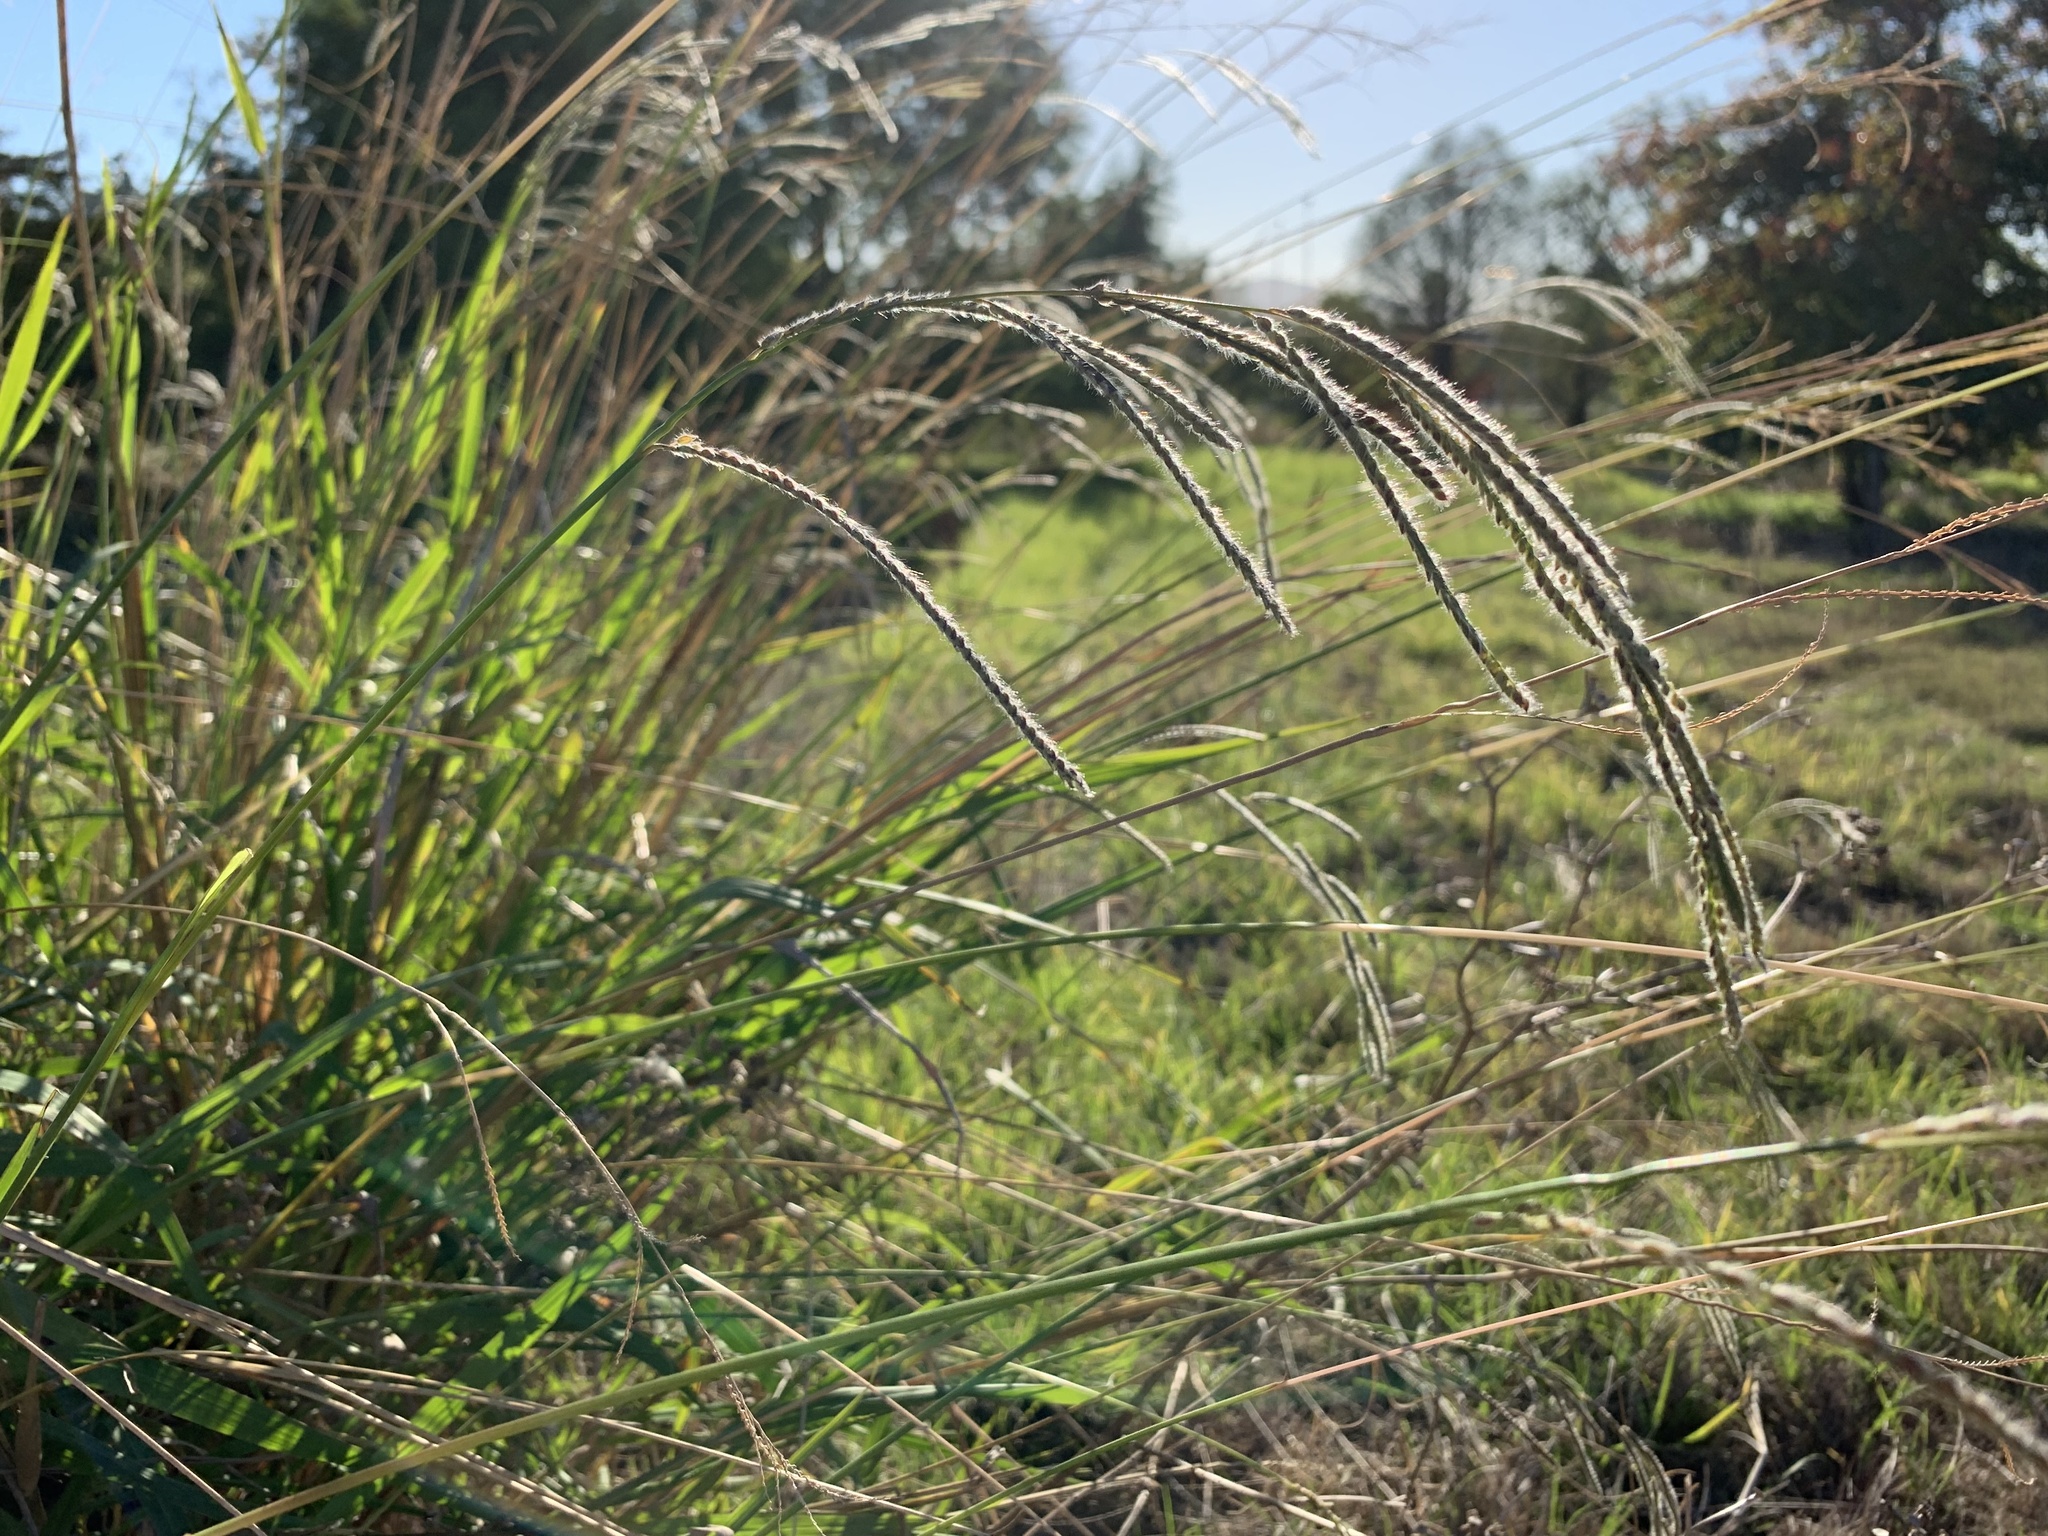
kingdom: Plantae
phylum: Tracheophyta
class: Liliopsida
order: Poales
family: Poaceae
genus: Paspalum
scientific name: Paspalum urvillei
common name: Vasey's grass
